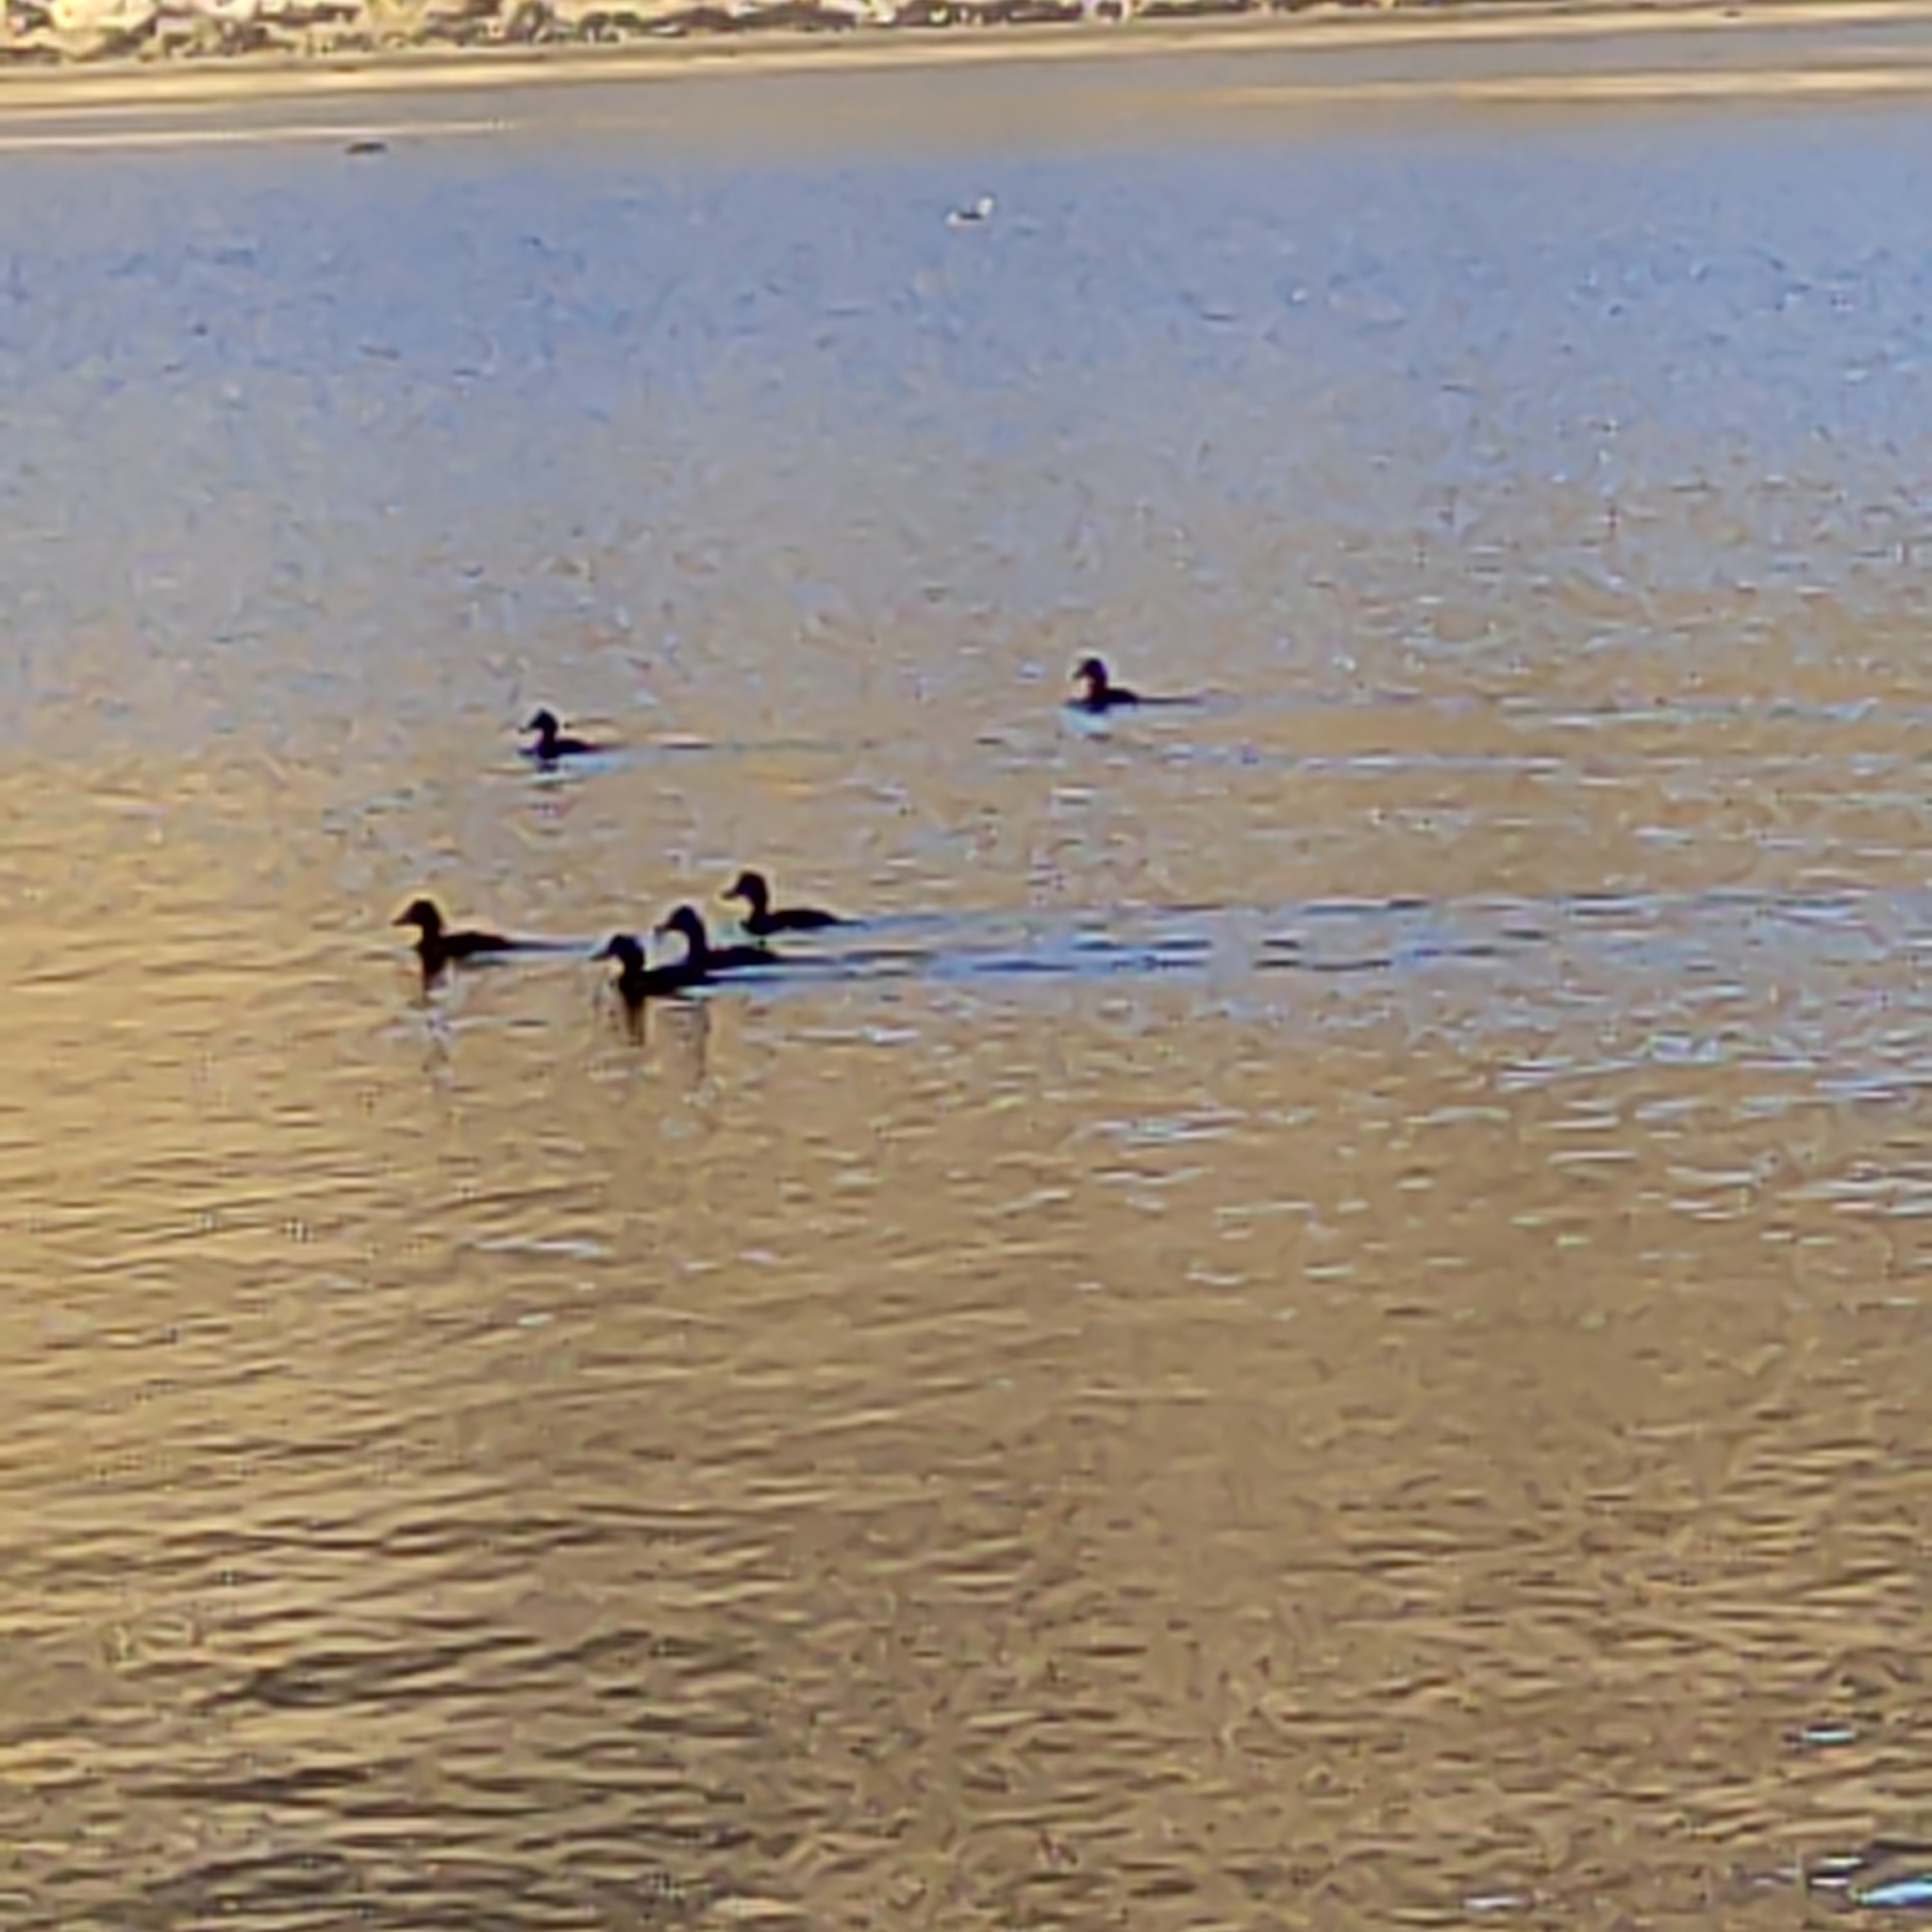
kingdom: Animalia
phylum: Chordata
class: Aves
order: Anseriformes
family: Anatidae
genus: Aythya
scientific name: Aythya novaeseelandiae
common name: New zealand scaup
